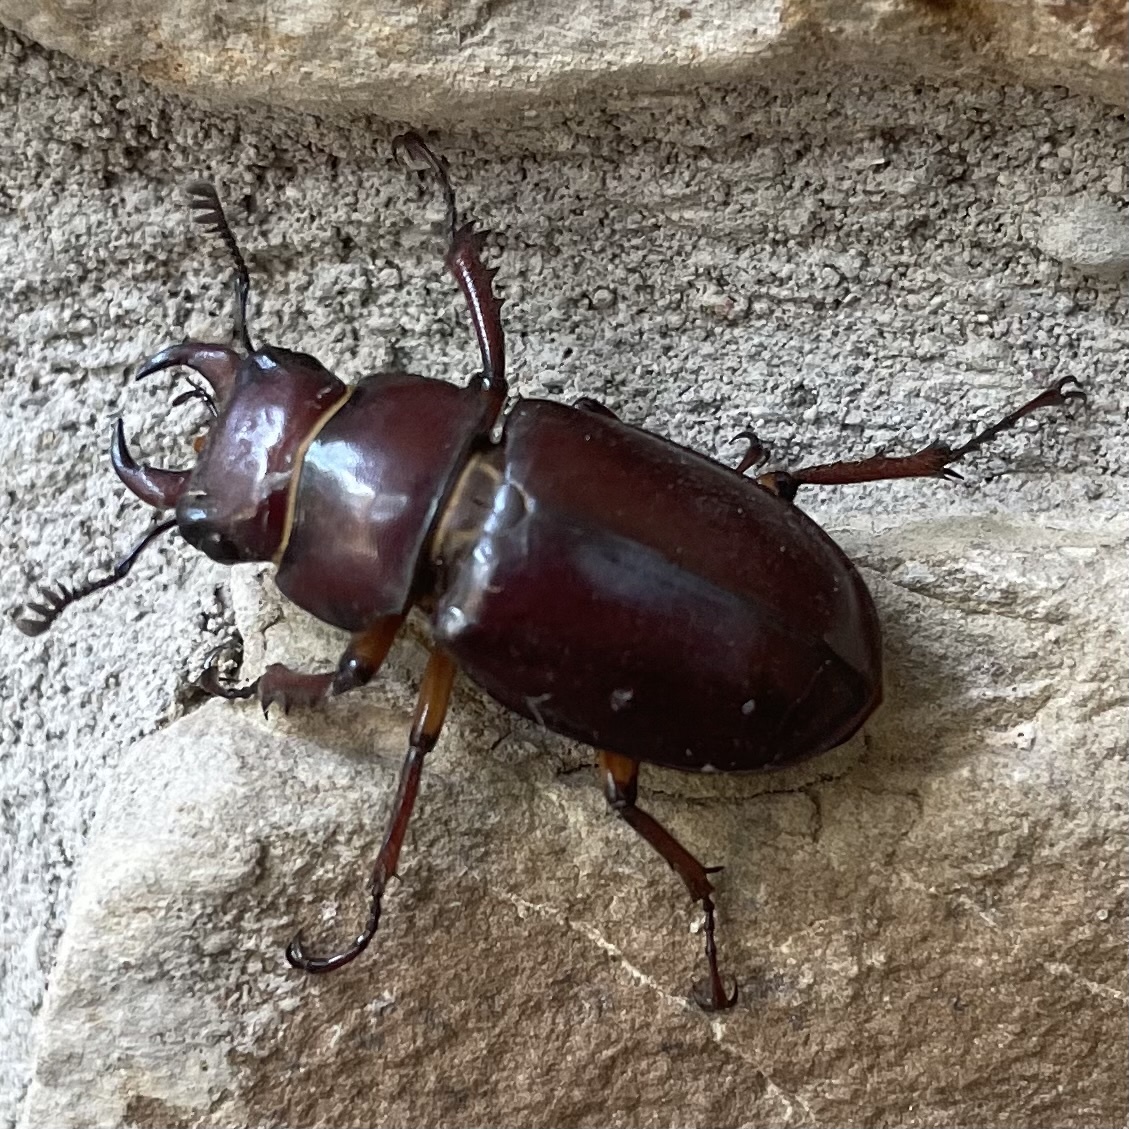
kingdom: Animalia
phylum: Arthropoda
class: Insecta
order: Coleoptera
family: Lucanidae
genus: Lucanus
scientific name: Lucanus capreolus
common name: Stag beetle
